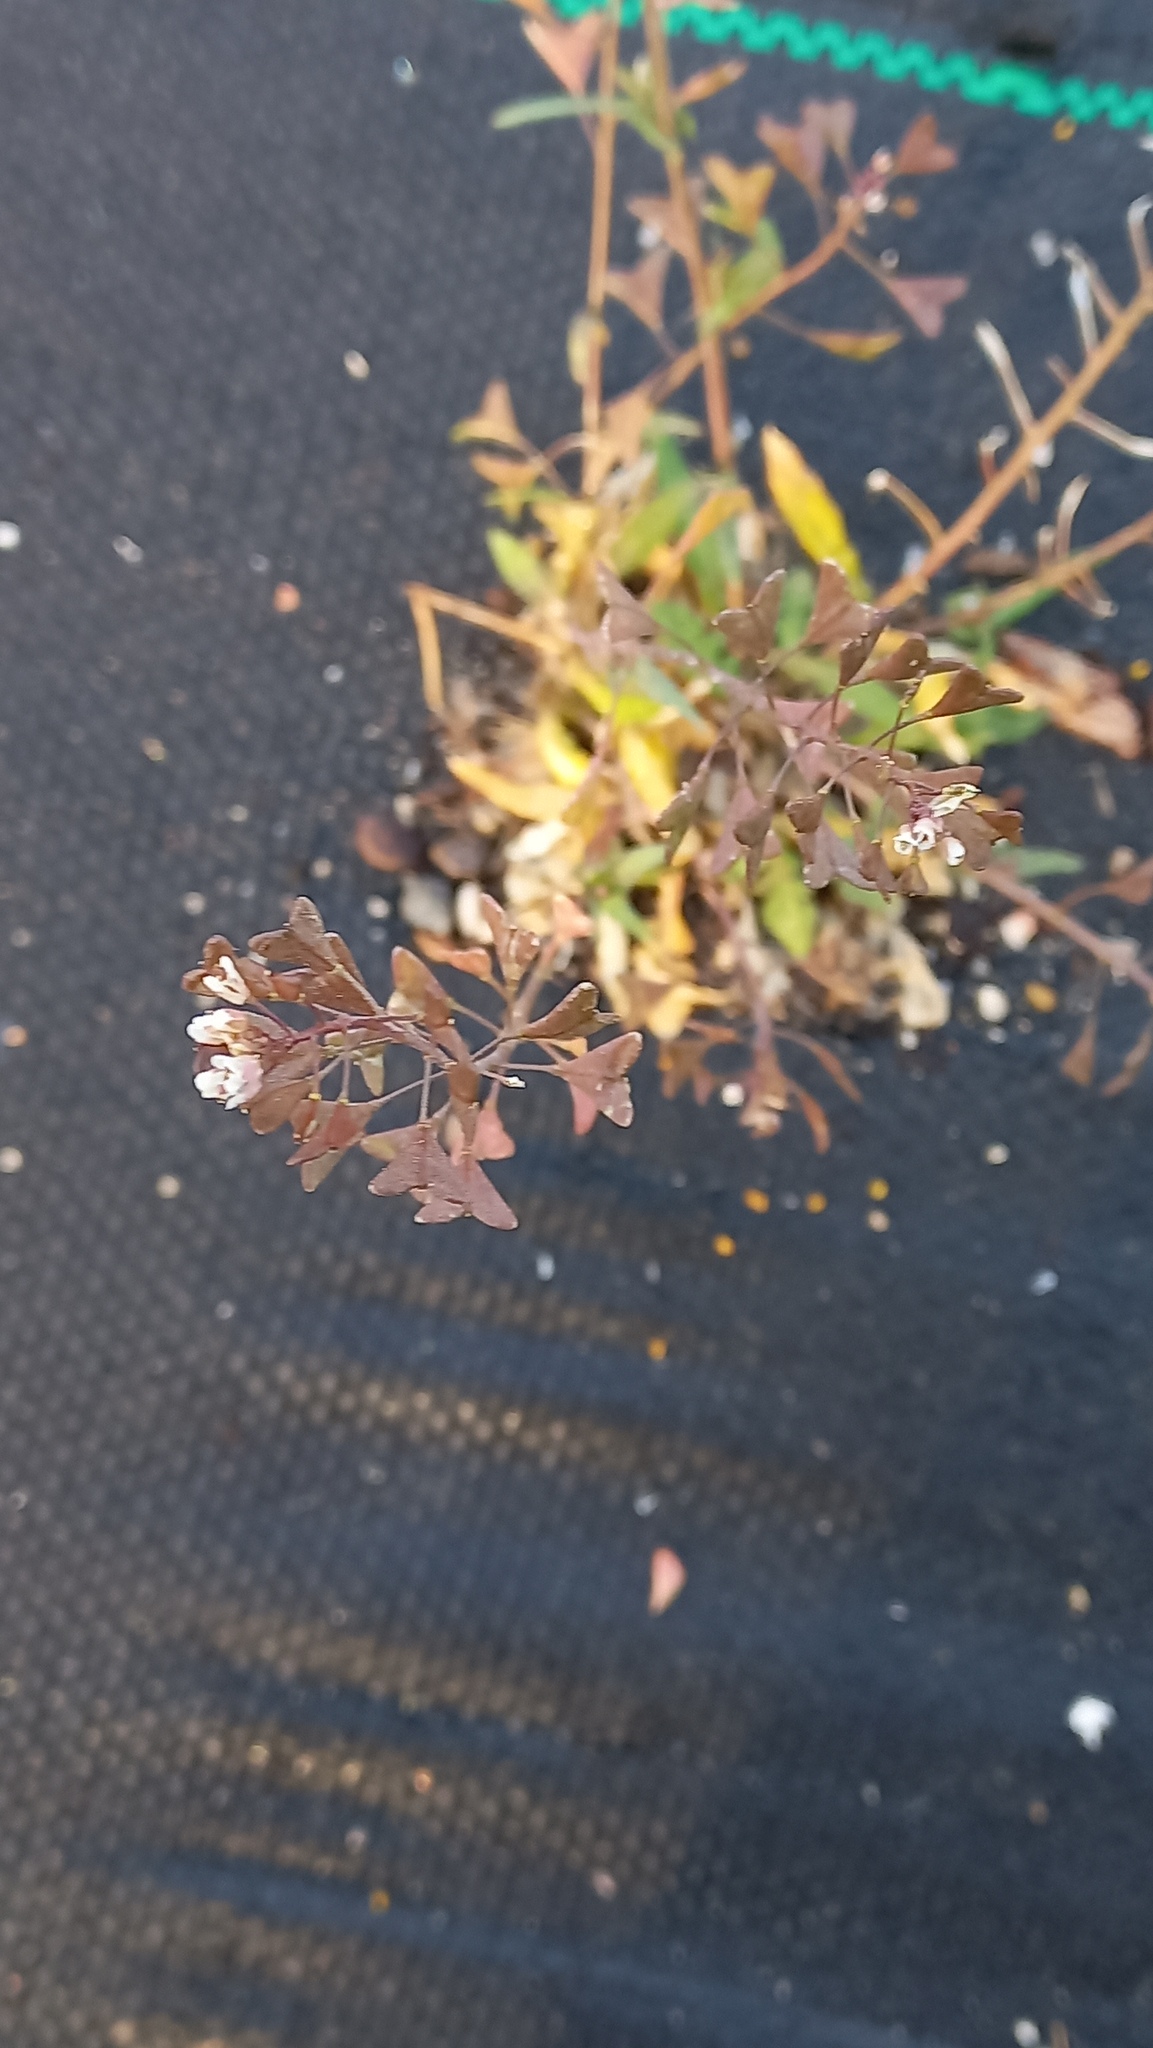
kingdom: Plantae
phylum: Tracheophyta
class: Magnoliopsida
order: Brassicales
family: Brassicaceae
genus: Capsella
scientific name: Capsella bursa-pastoris
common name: Shepherd's purse
